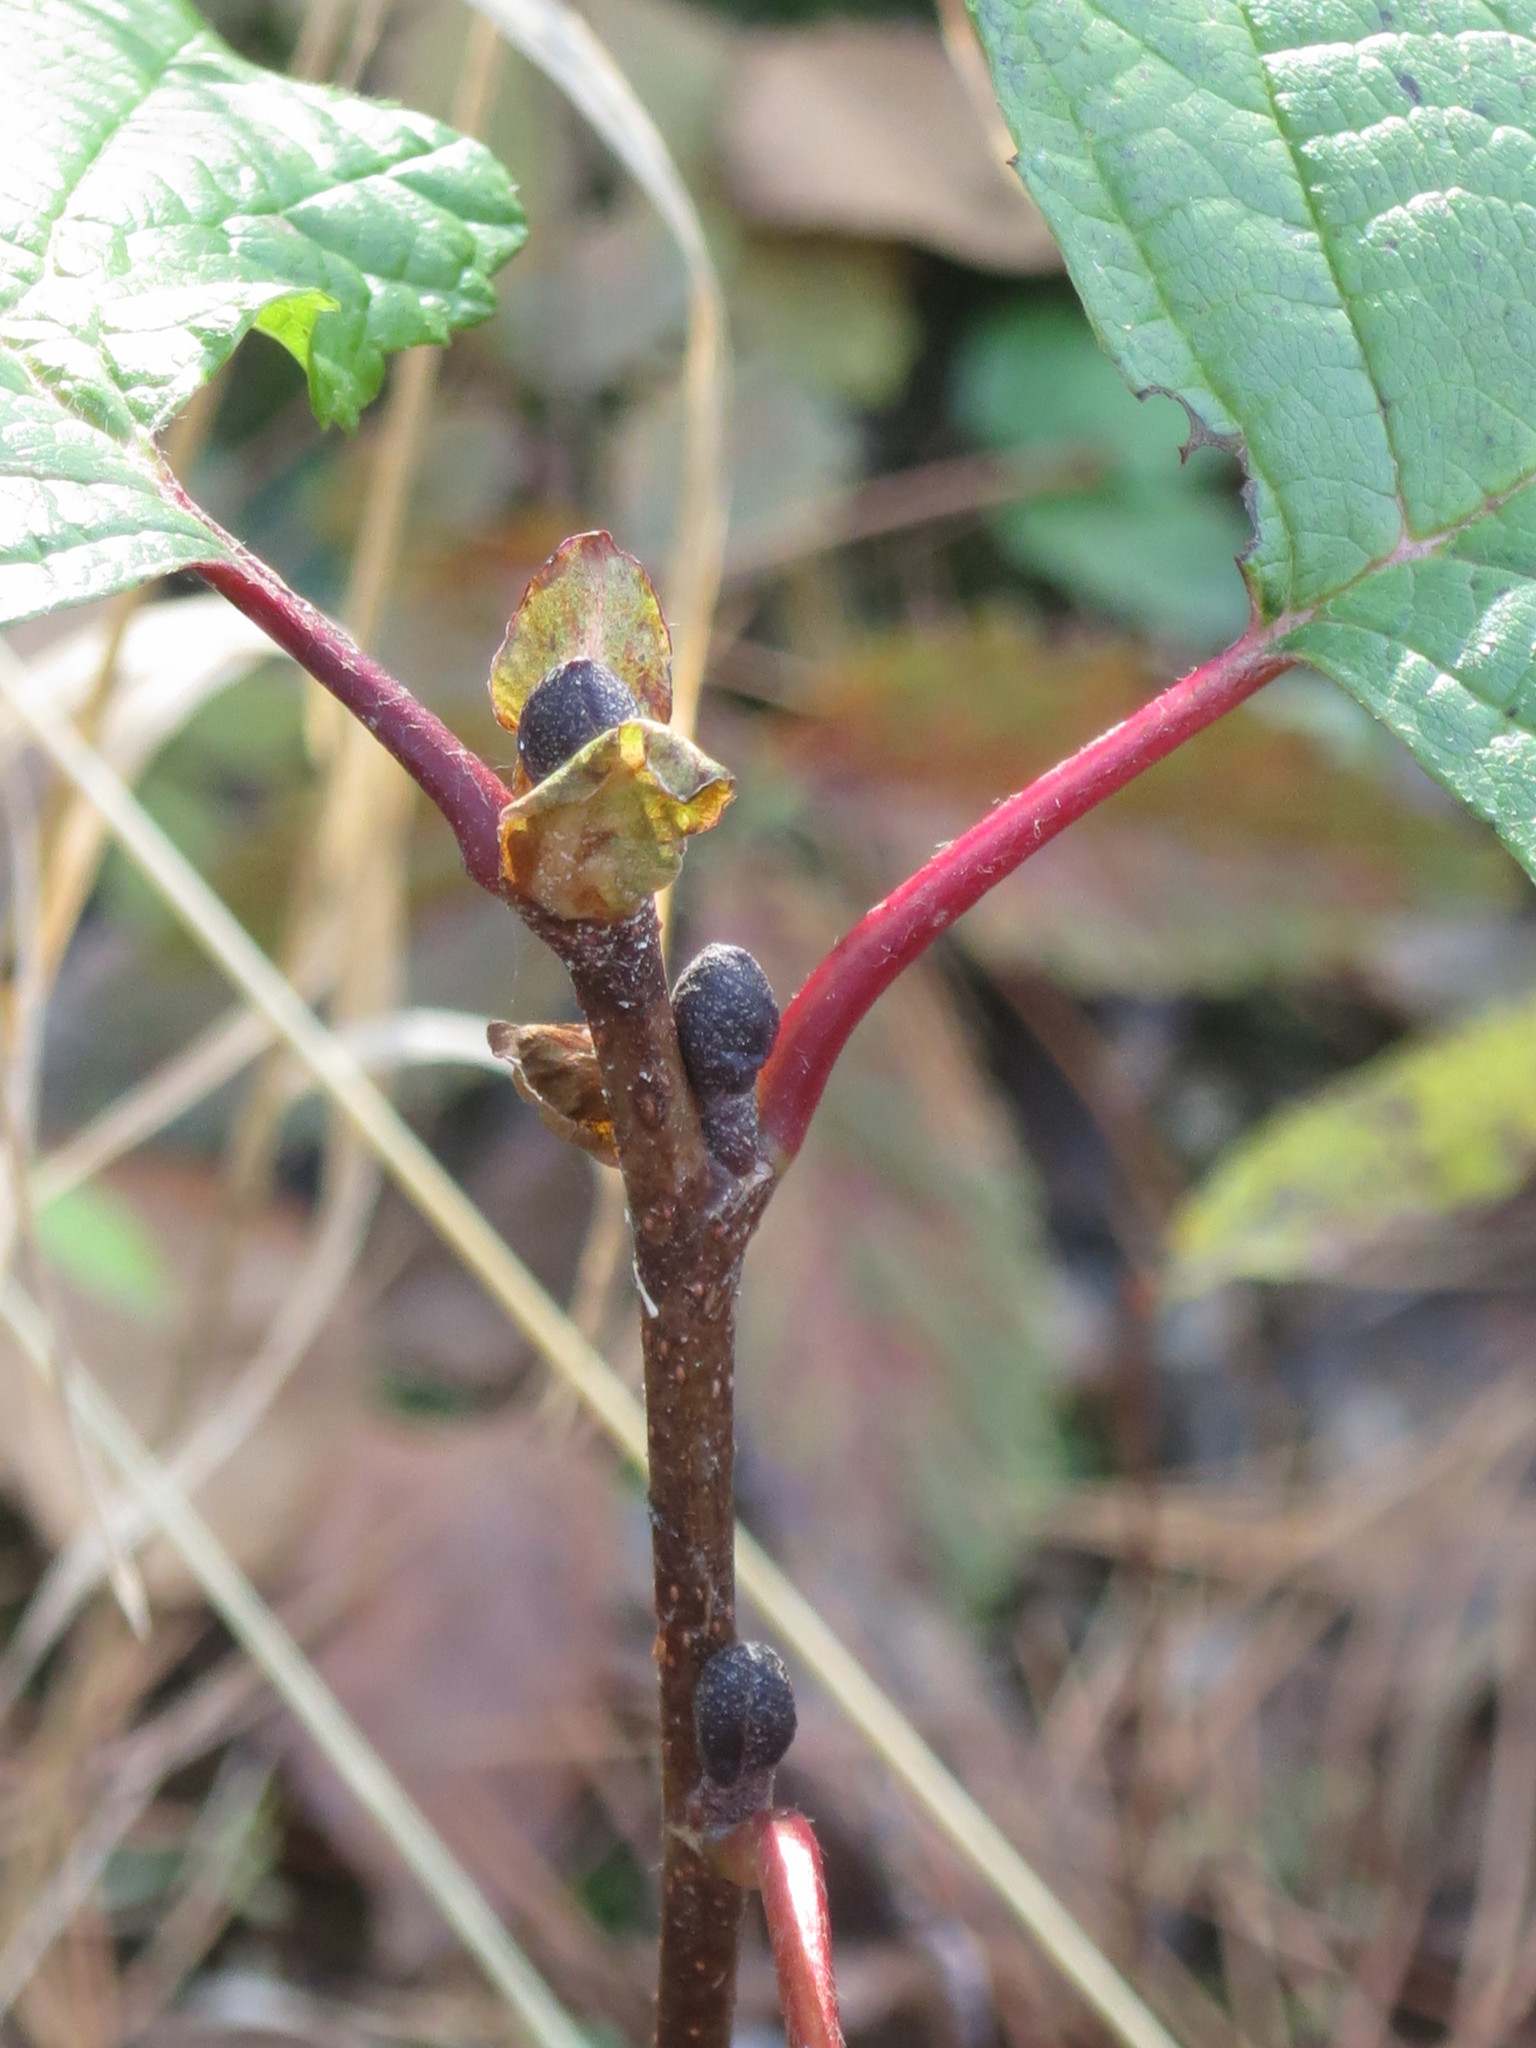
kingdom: Plantae
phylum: Tracheophyta
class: Magnoliopsida
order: Fagales
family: Betulaceae
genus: Alnus
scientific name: Alnus hirsuta
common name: Manchurian alder
